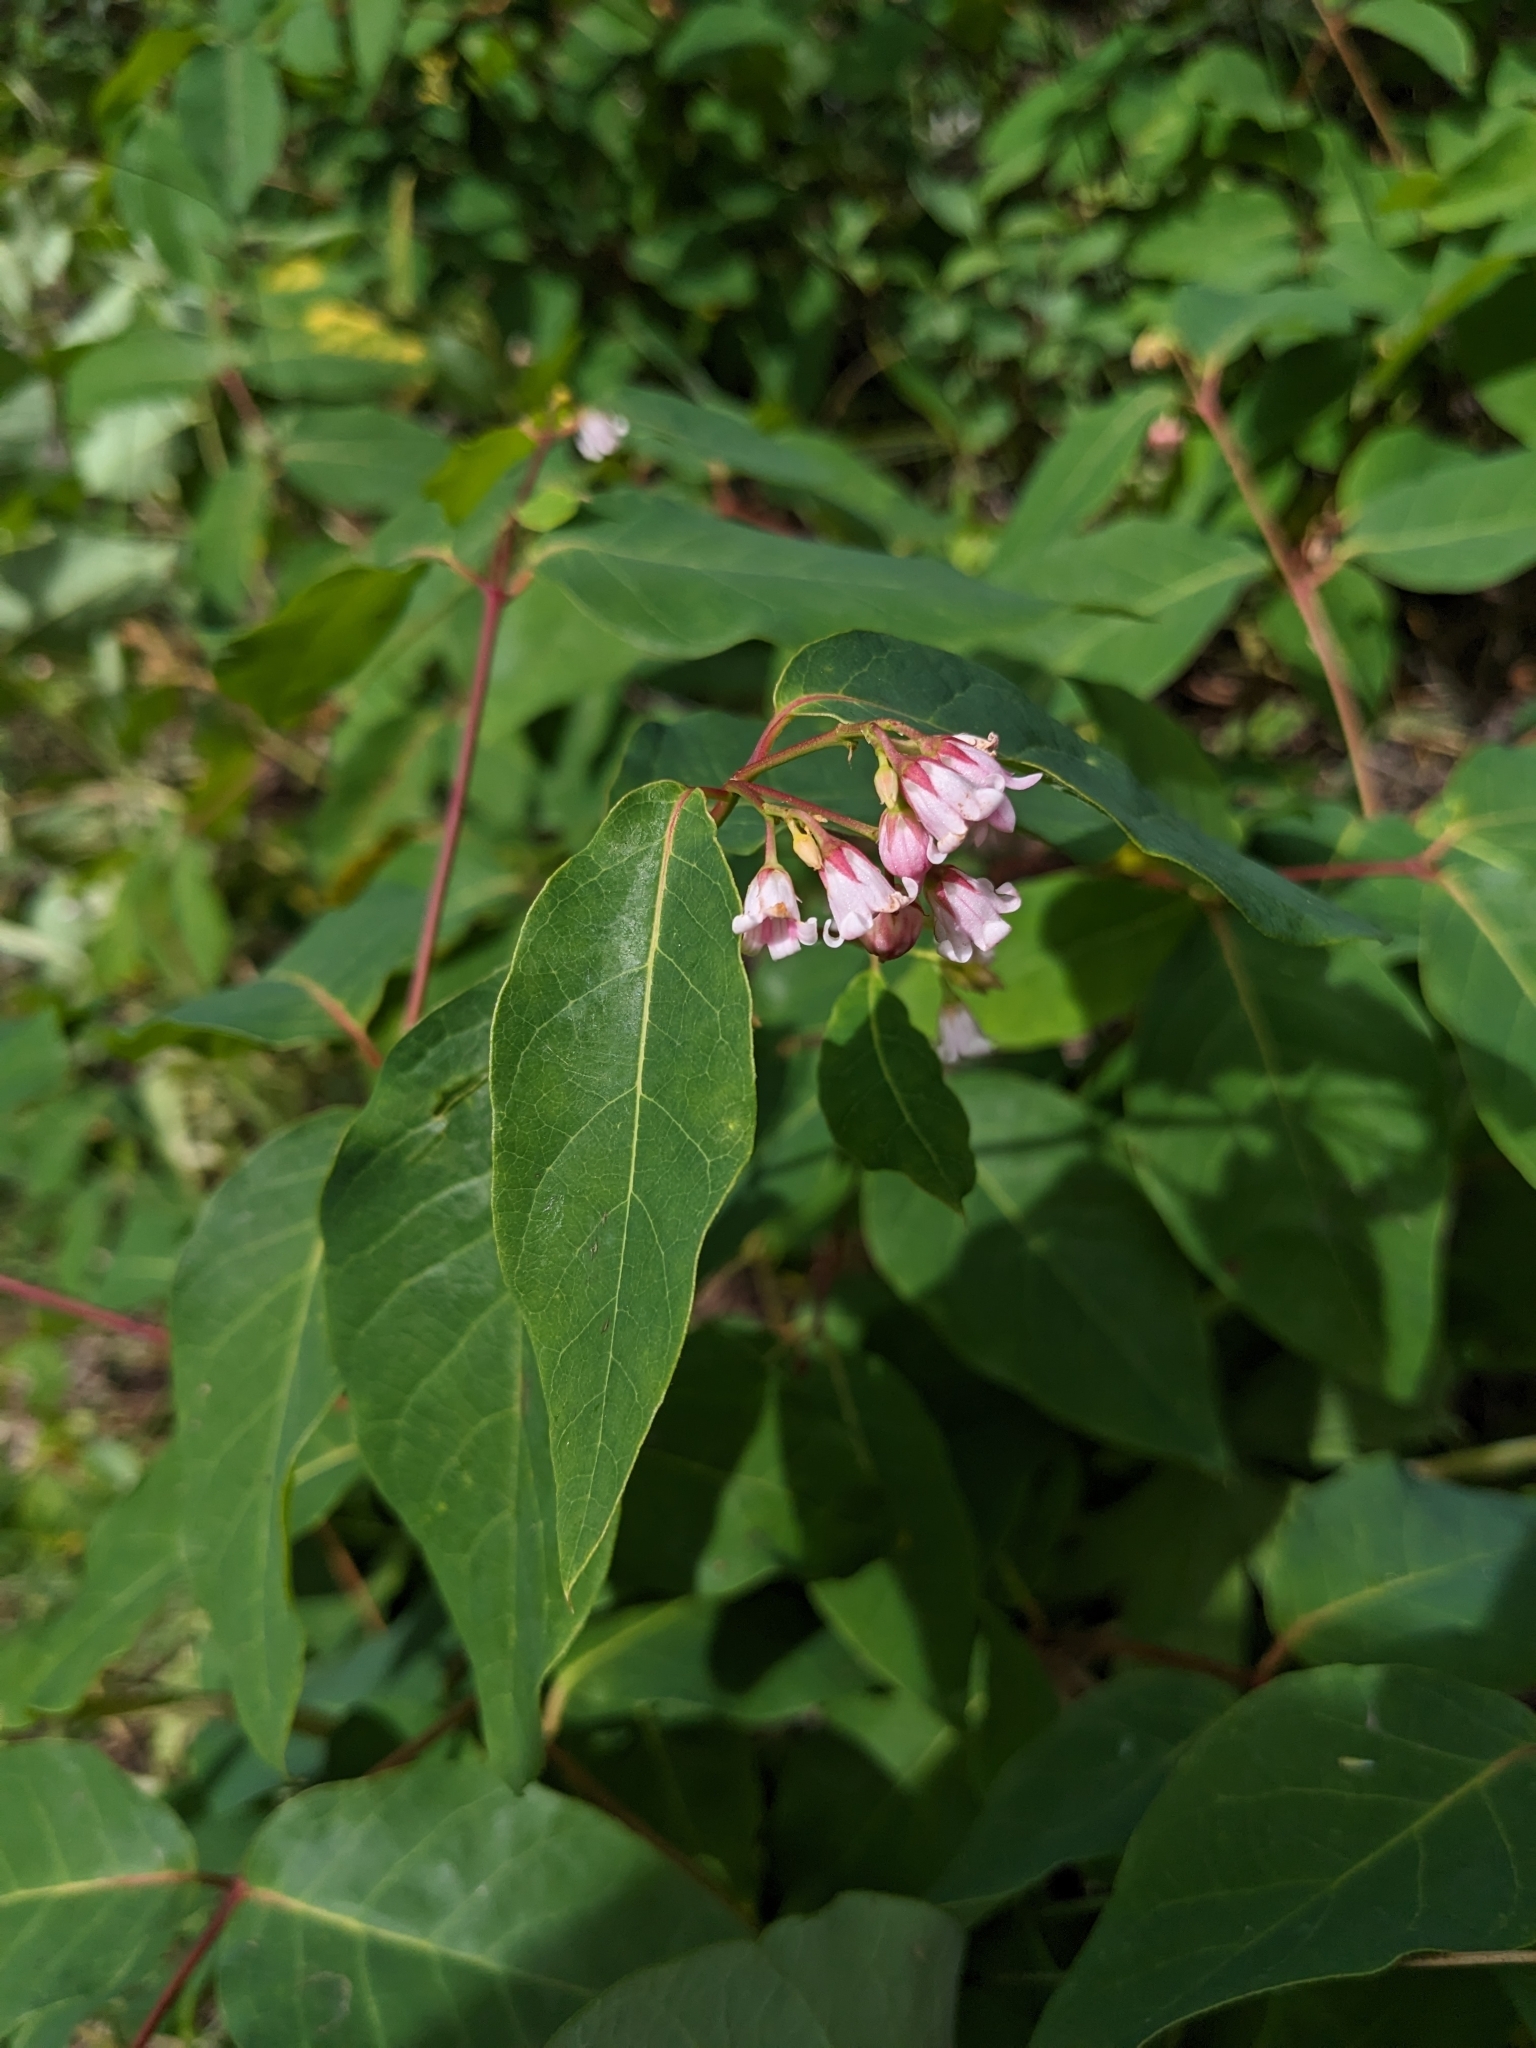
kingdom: Plantae
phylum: Tracheophyta
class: Magnoliopsida
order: Gentianales
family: Apocynaceae
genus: Apocynum
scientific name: Apocynum androsaemifolium
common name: Spreading dogbane
